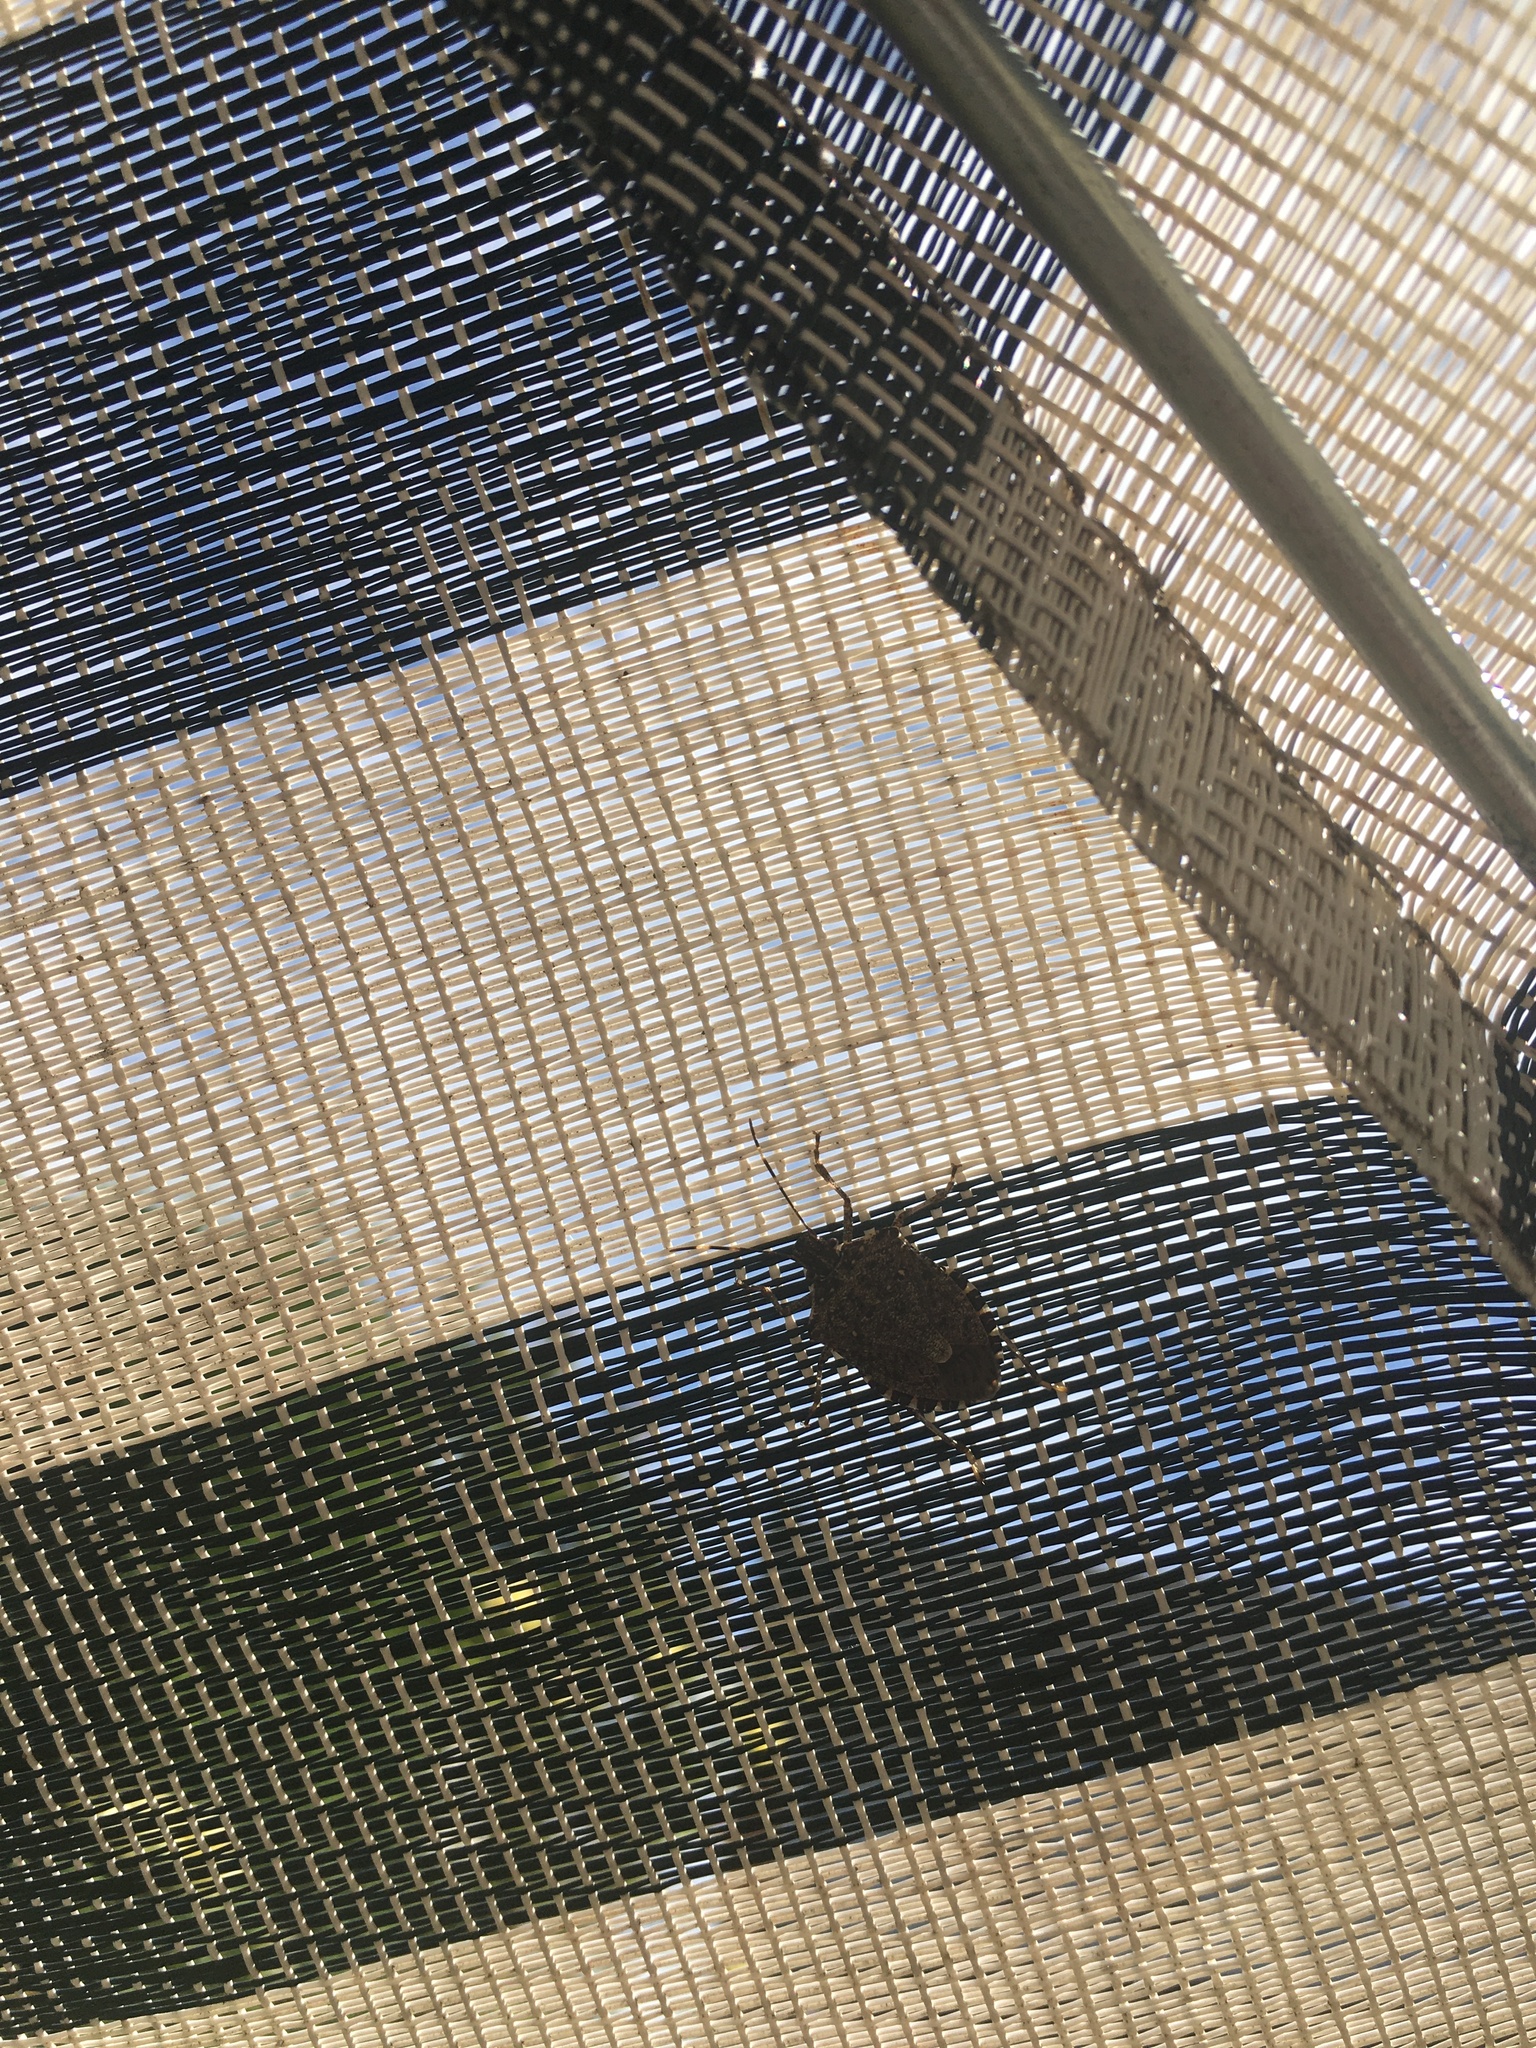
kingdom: Animalia
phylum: Arthropoda
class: Insecta
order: Hemiptera
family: Pentatomidae
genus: Halyomorpha
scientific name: Halyomorpha halys
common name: Brown marmorated stink bug
